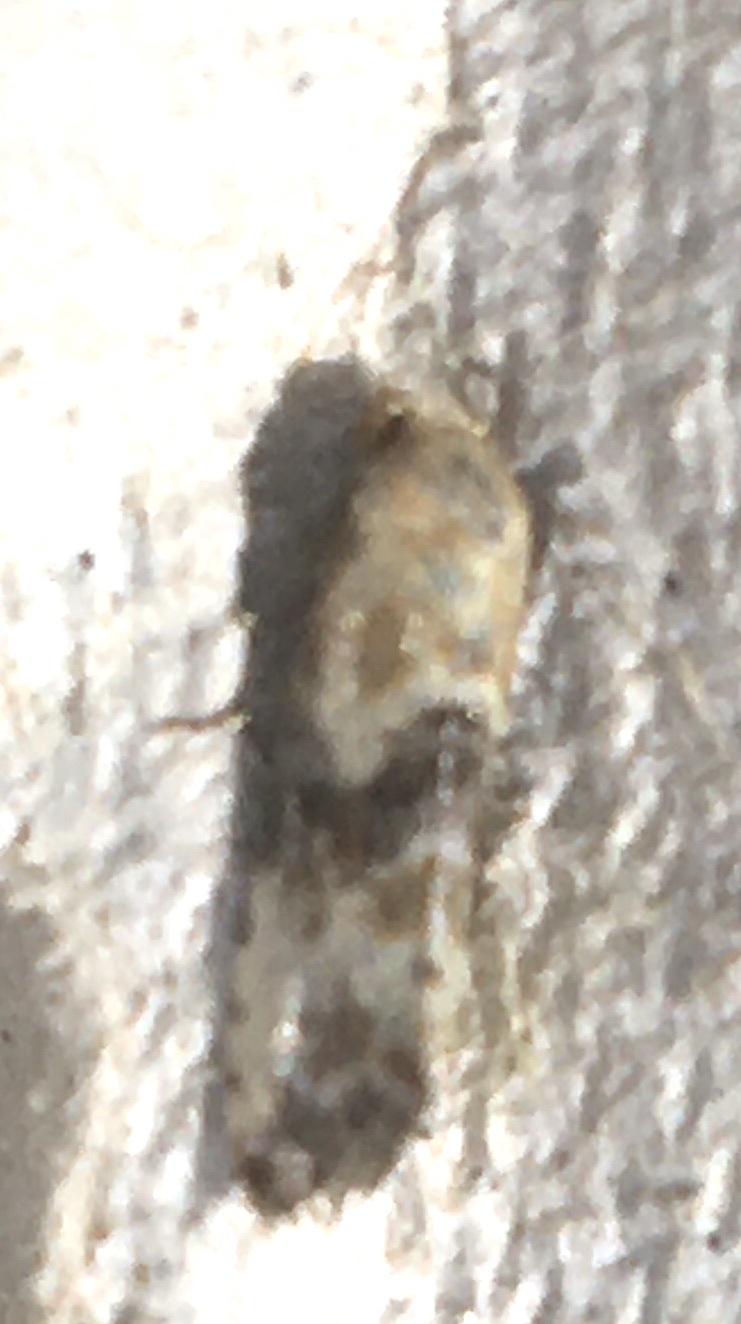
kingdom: Animalia
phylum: Arthropoda
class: Insecta
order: Lepidoptera
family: Tortricidae
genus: Eupoecilia
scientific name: Eupoecilia angustana
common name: Marbled conch
